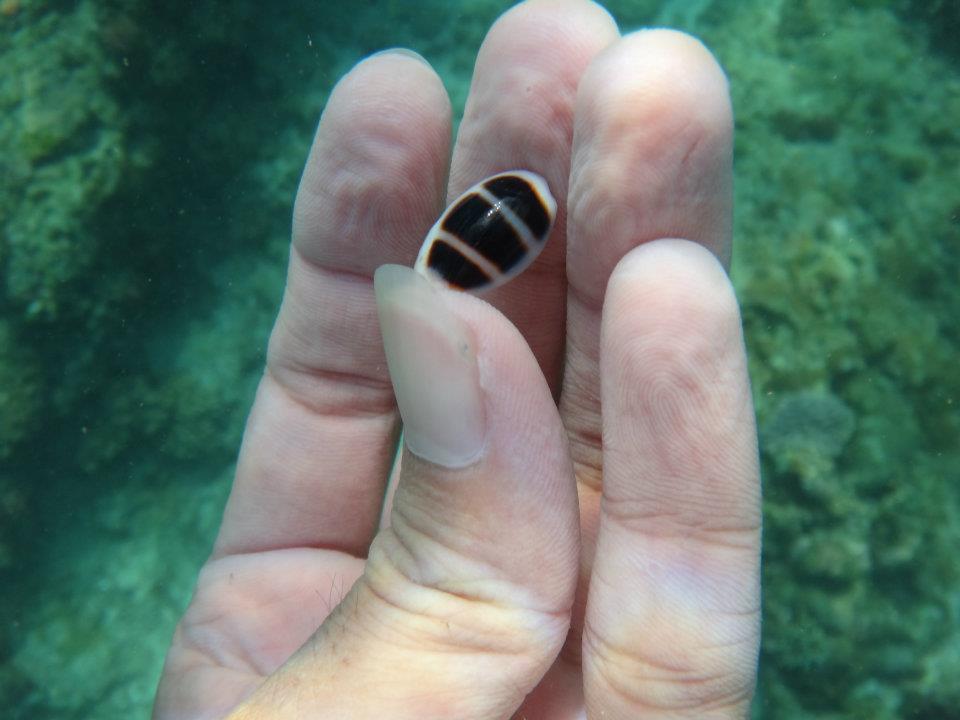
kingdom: Animalia
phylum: Mollusca
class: Gastropoda
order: Littorinimorpha
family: Cypraeidae
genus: Palmadusta
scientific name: Palmadusta asellus
